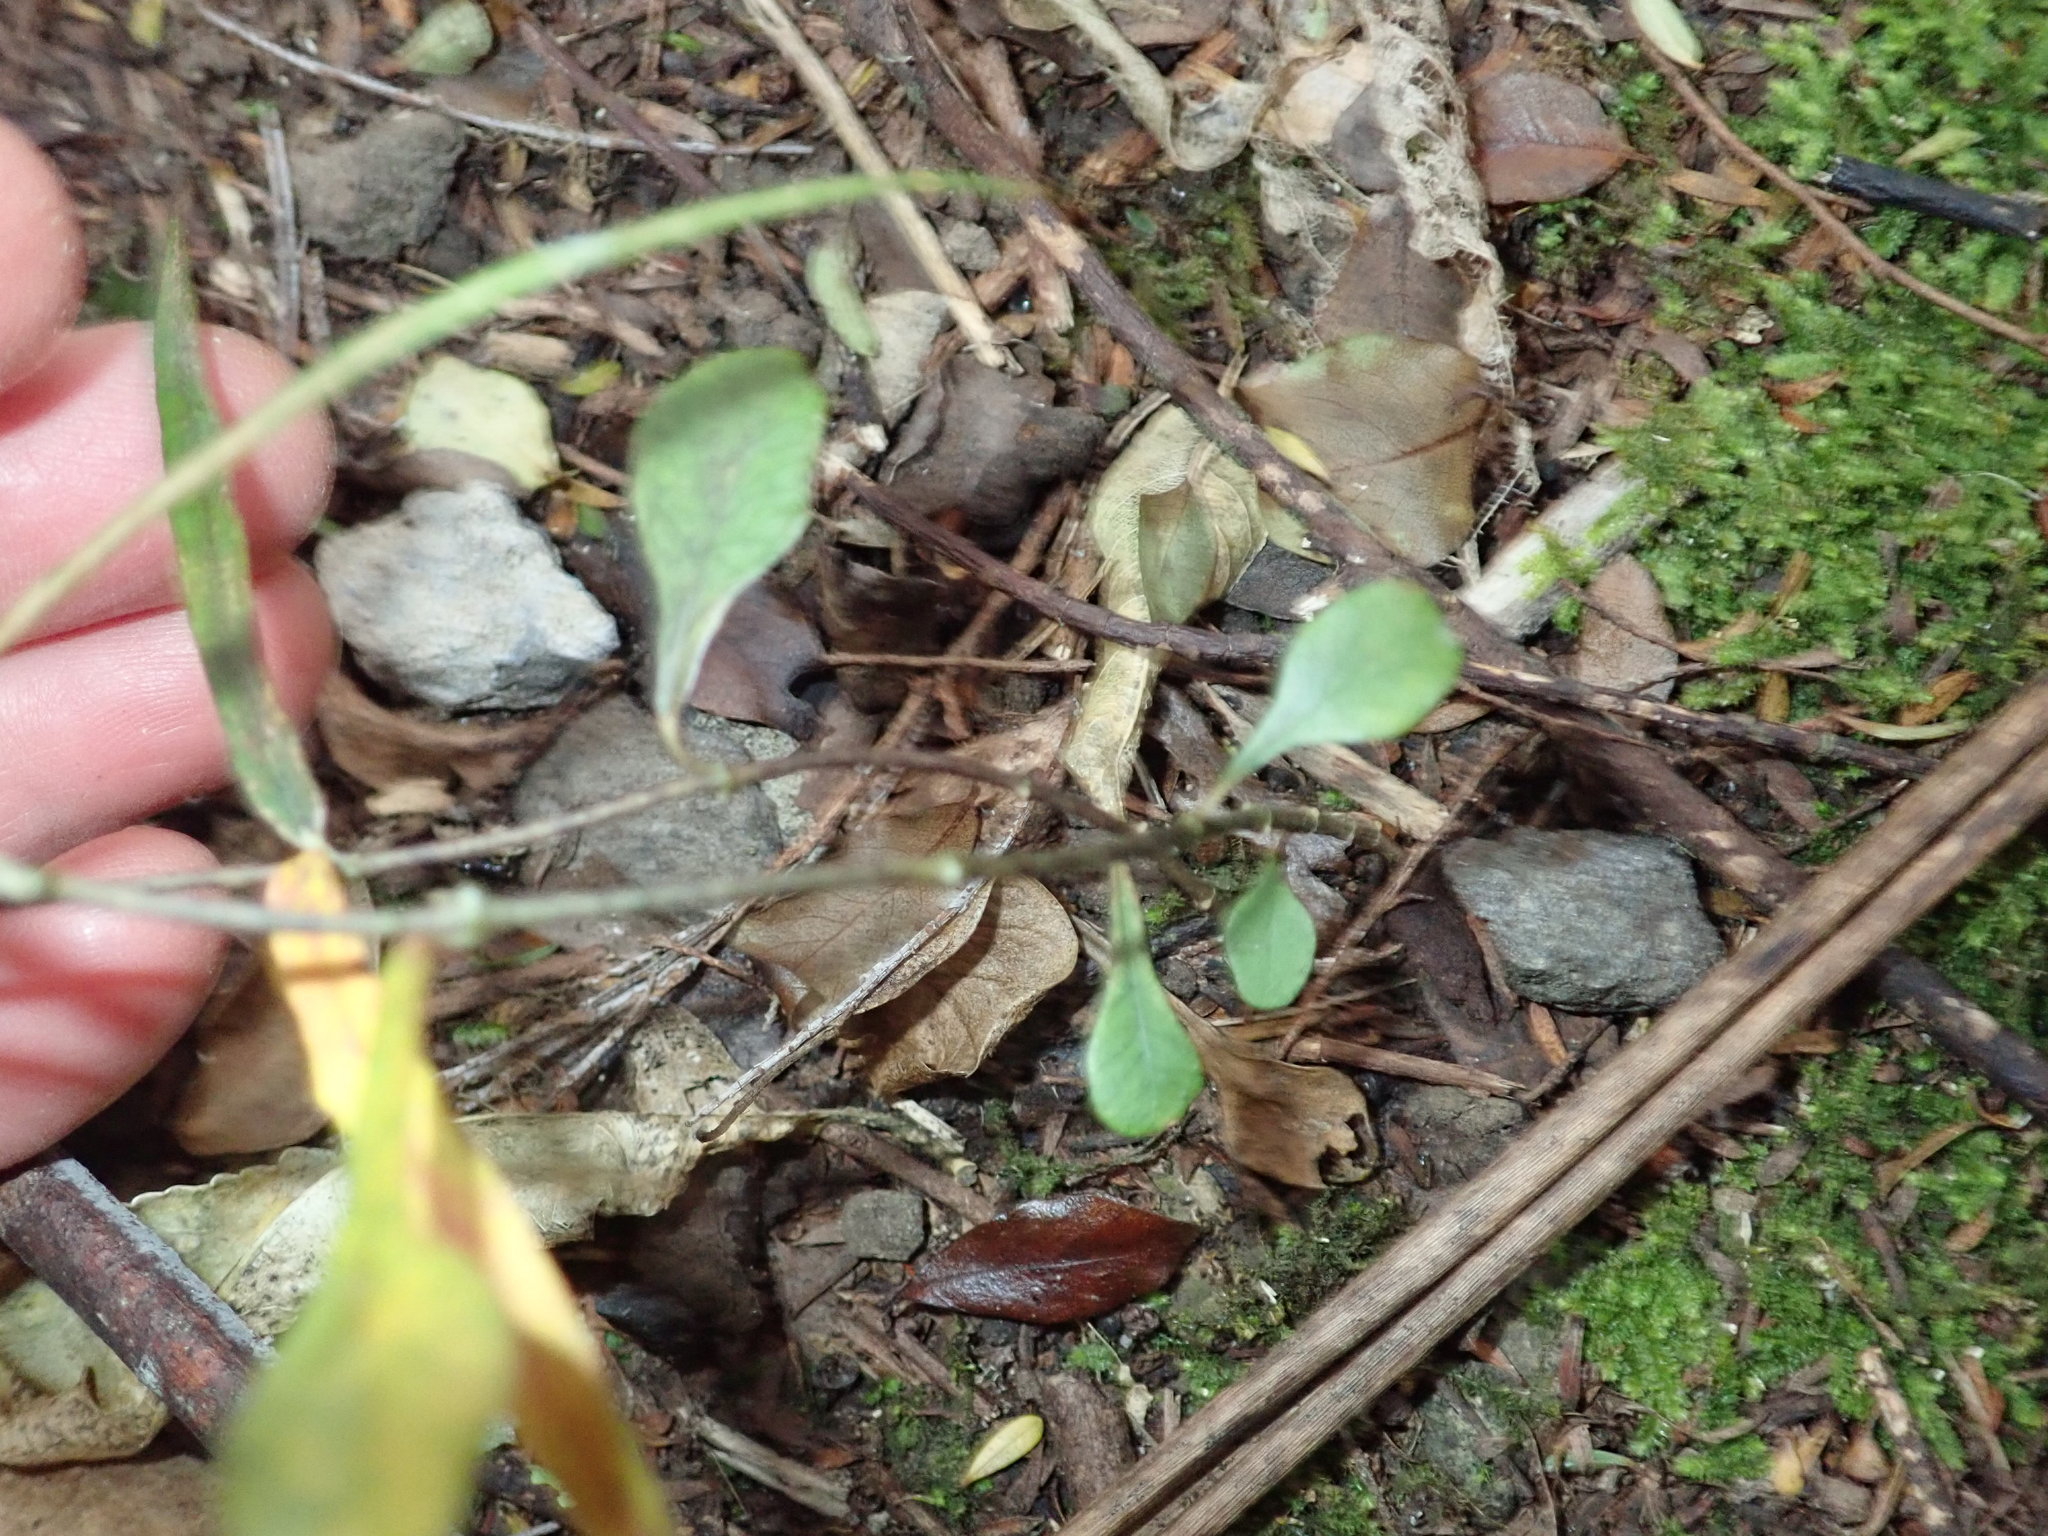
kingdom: Plantae
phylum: Tracheophyta
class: Magnoliopsida
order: Gentianales
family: Apocynaceae
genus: Parsonsia
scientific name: Parsonsia heterophylla
